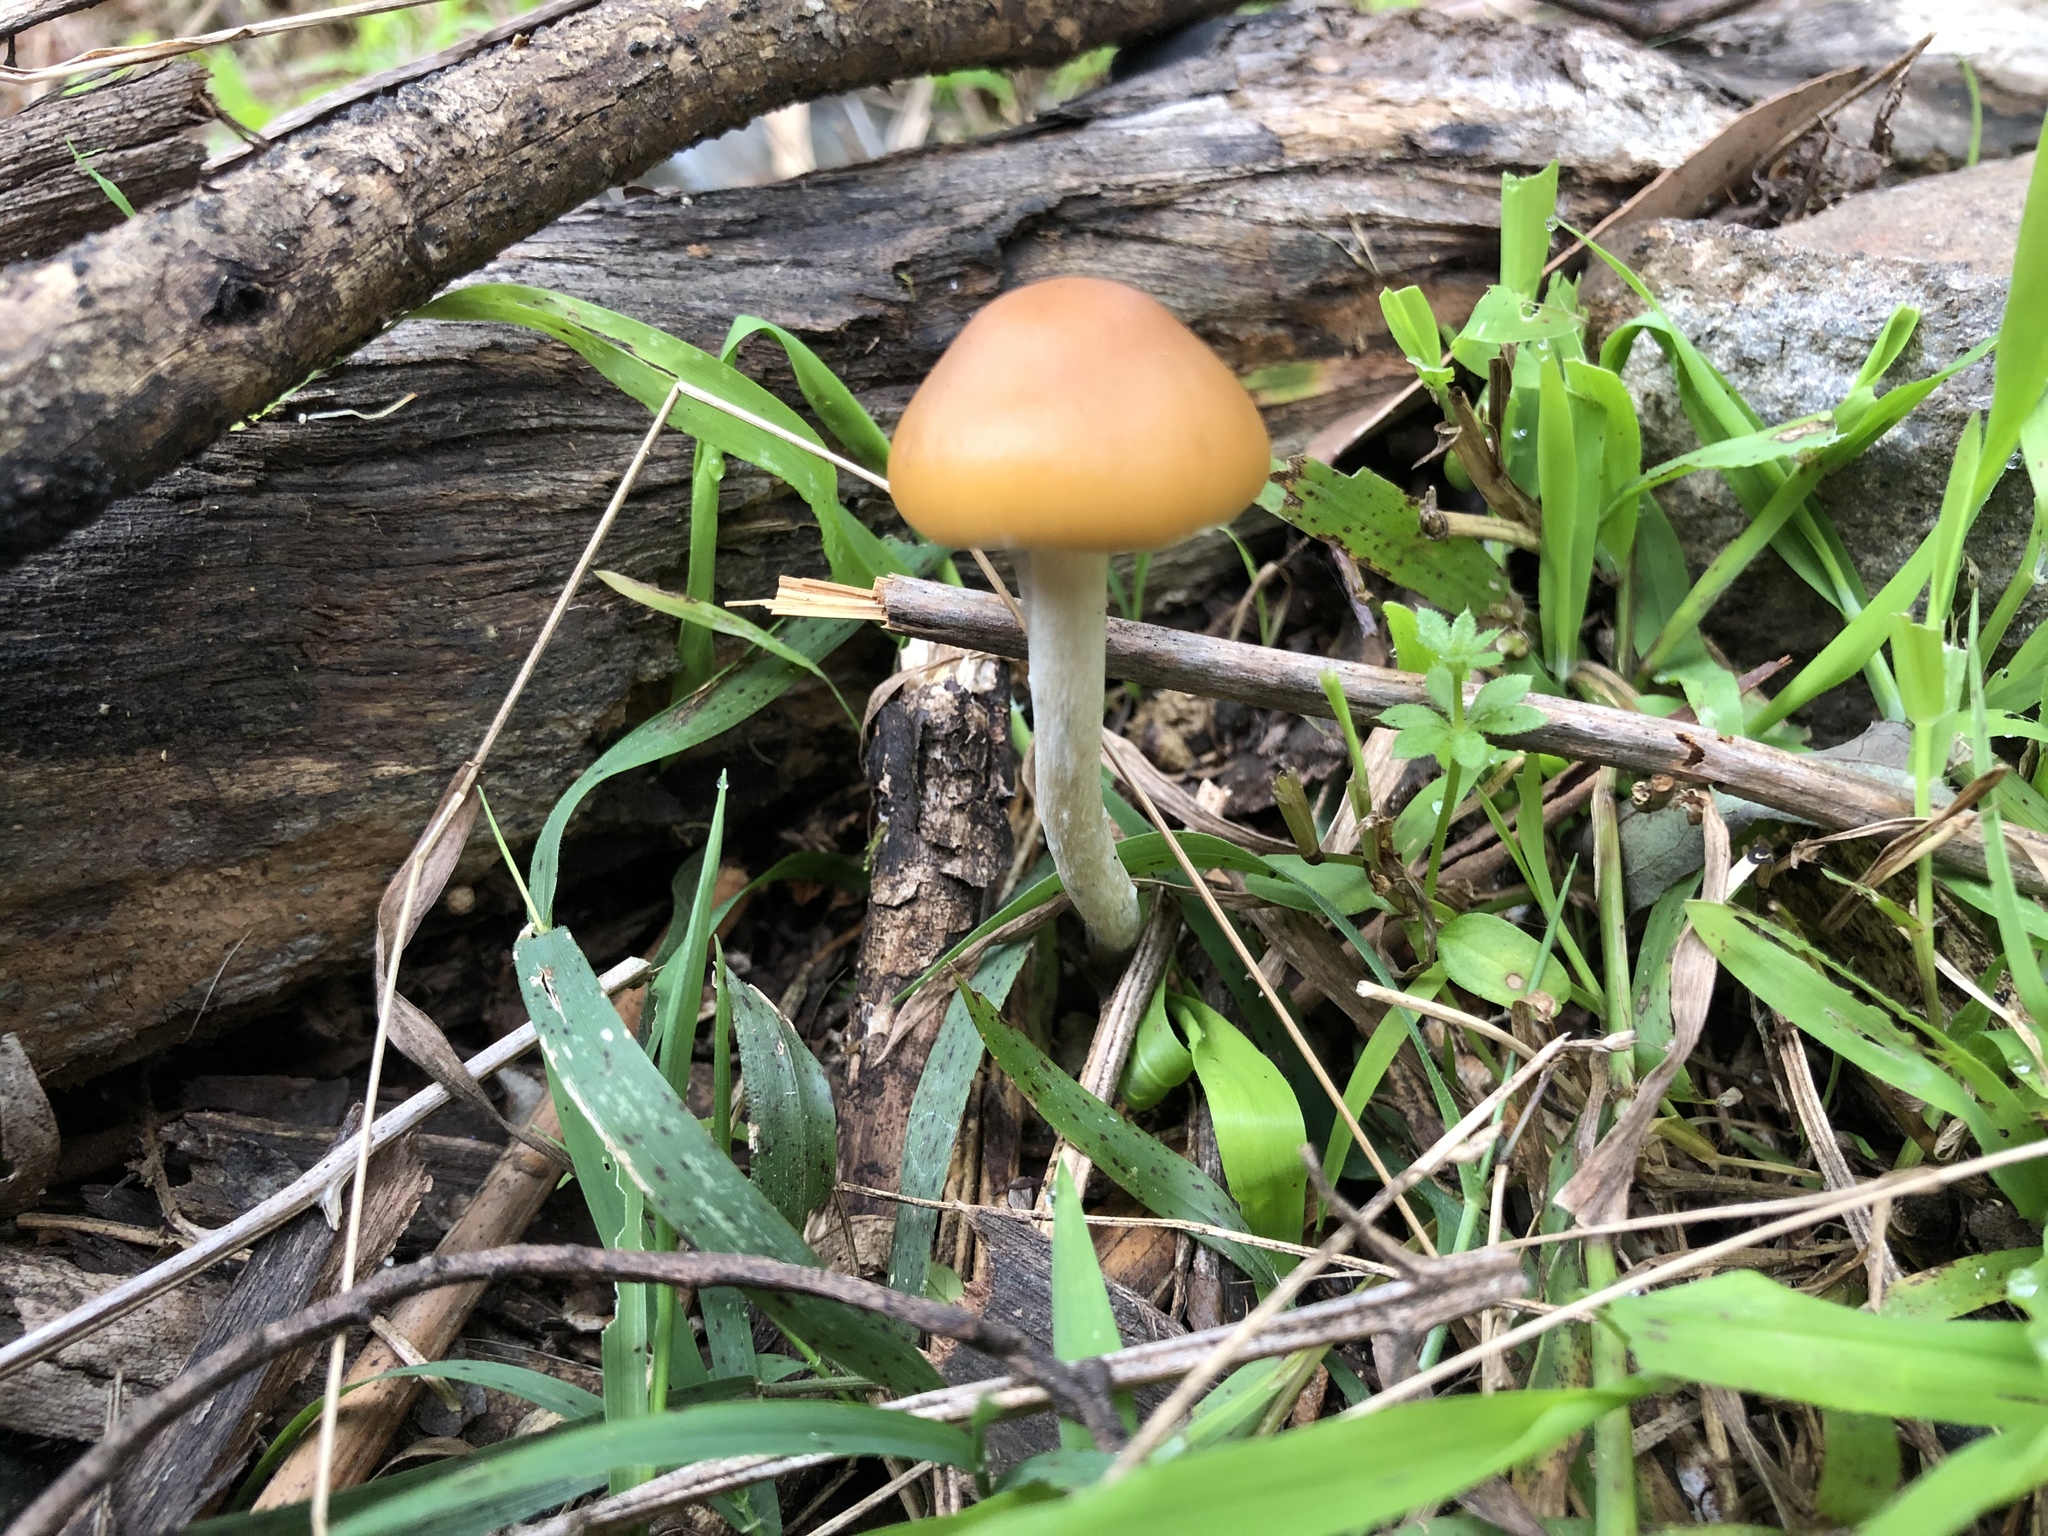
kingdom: Fungi
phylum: Basidiomycota
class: Agaricomycetes
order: Agaricales
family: Hymenogastraceae
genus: Psilocybe
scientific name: Psilocybe subaeruginosa
